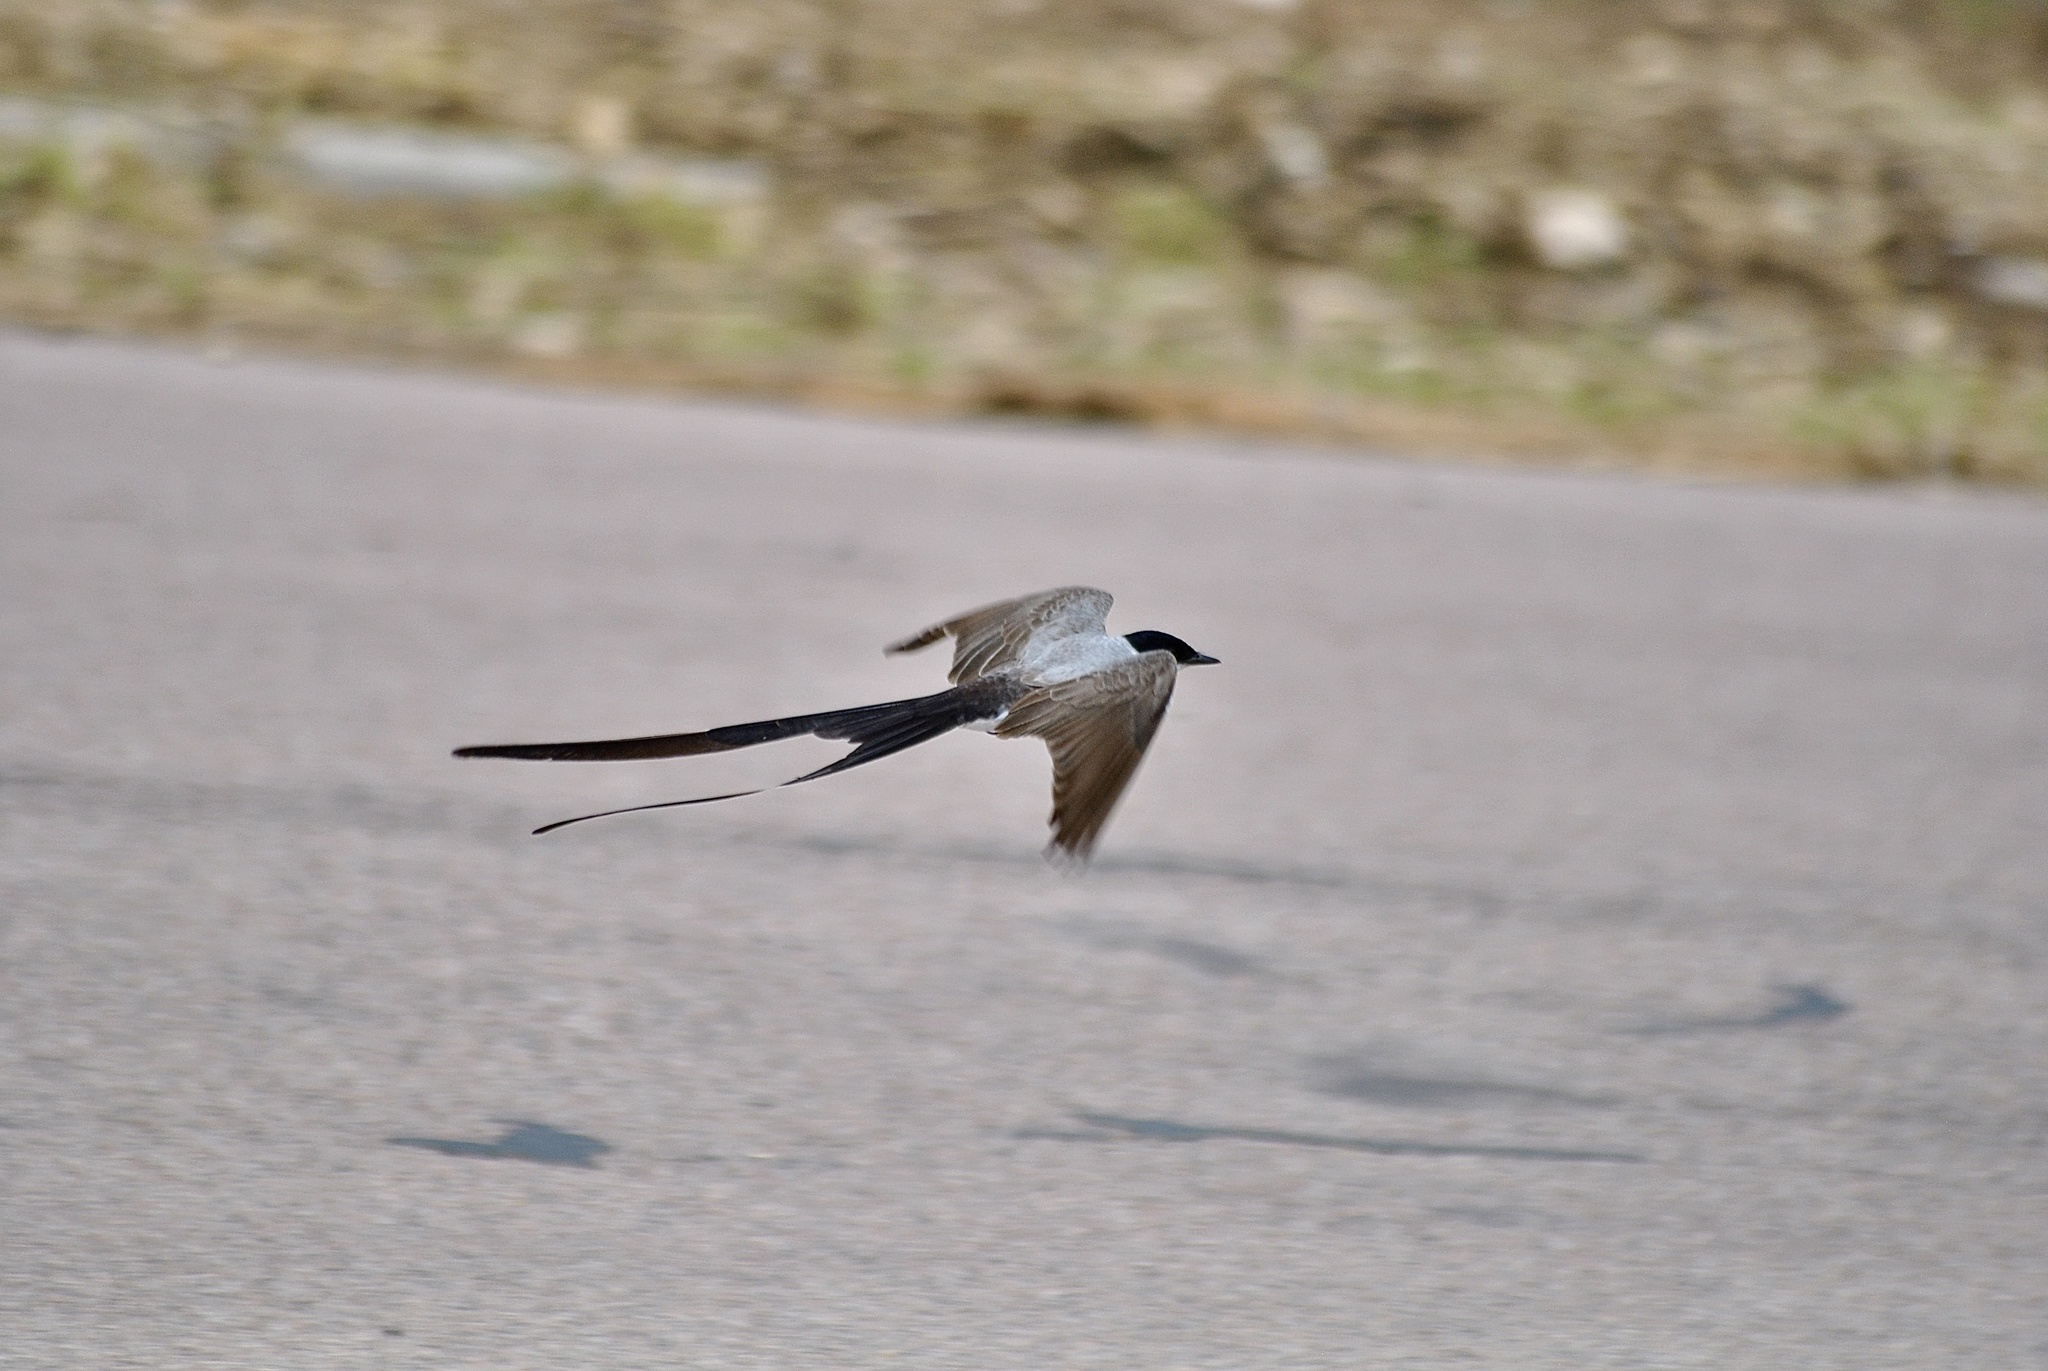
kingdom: Animalia
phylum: Chordata
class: Aves
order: Passeriformes
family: Tyrannidae
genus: Tyrannus
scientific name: Tyrannus savana
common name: Fork-tailed flycatcher
